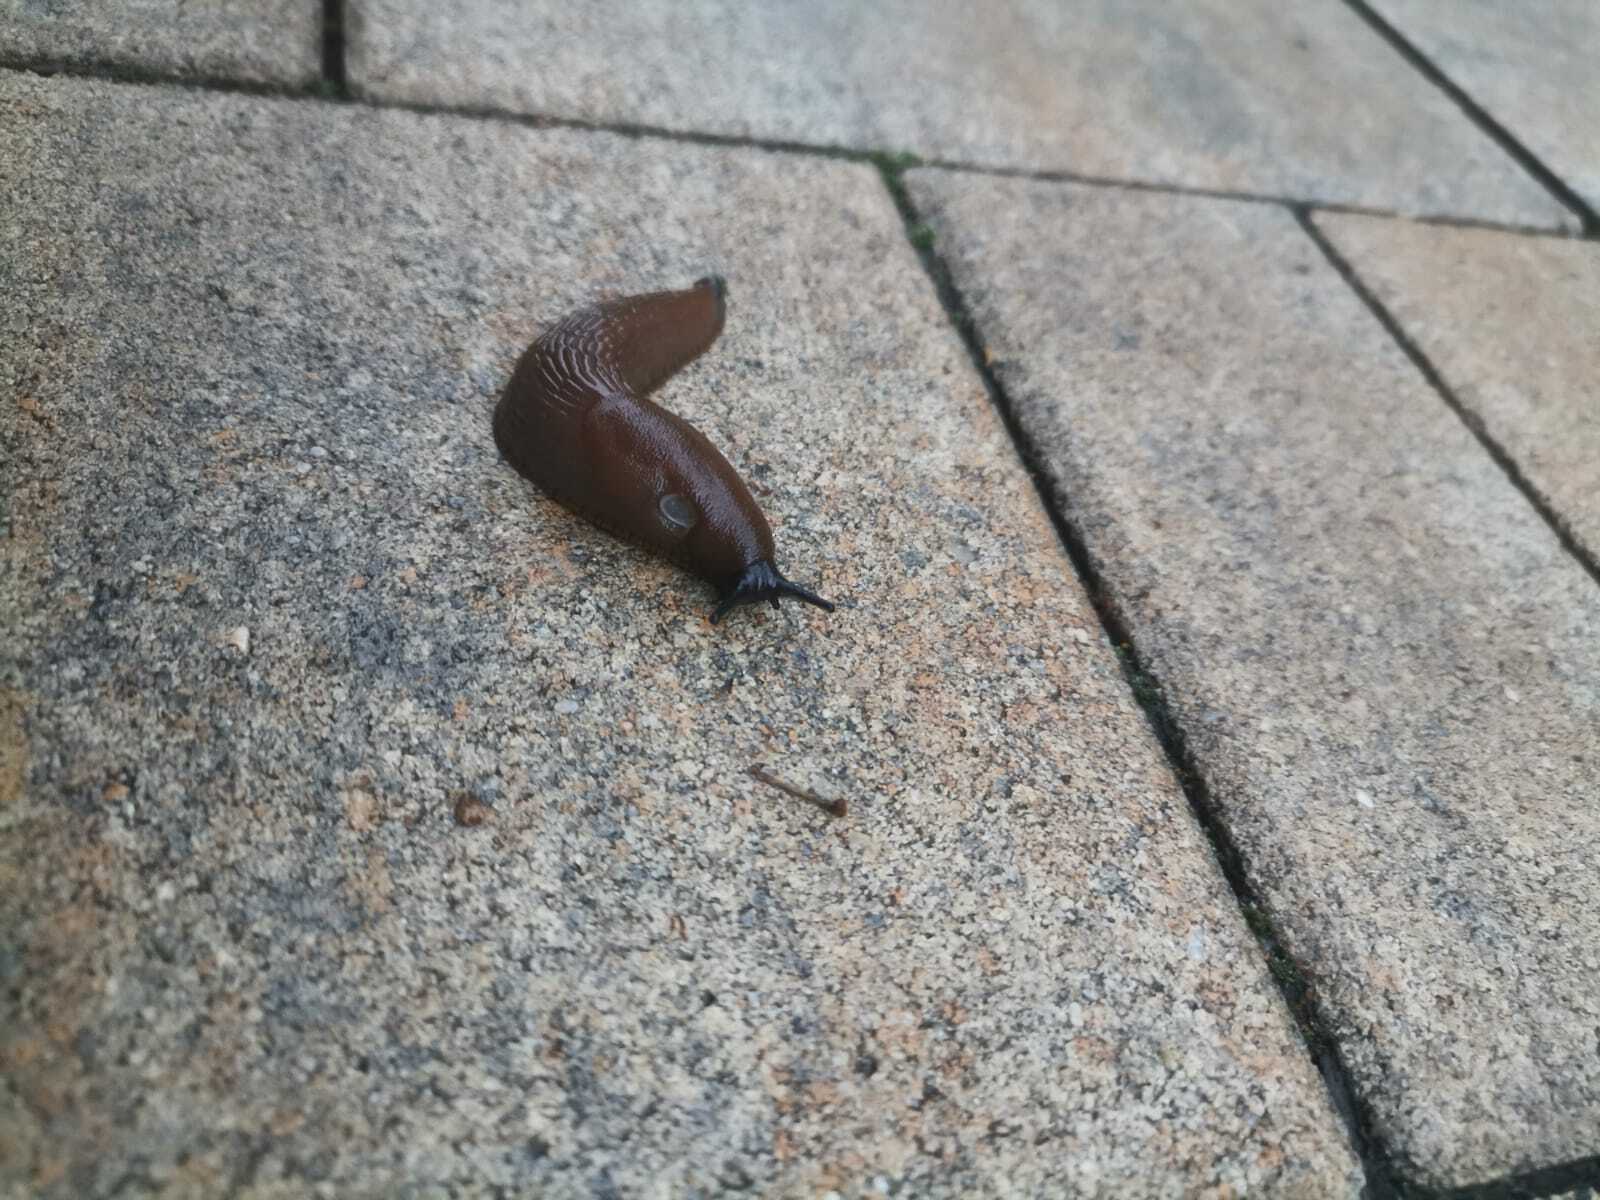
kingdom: Animalia
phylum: Mollusca
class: Gastropoda
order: Stylommatophora
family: Arionidae
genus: Arion
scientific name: Arion
